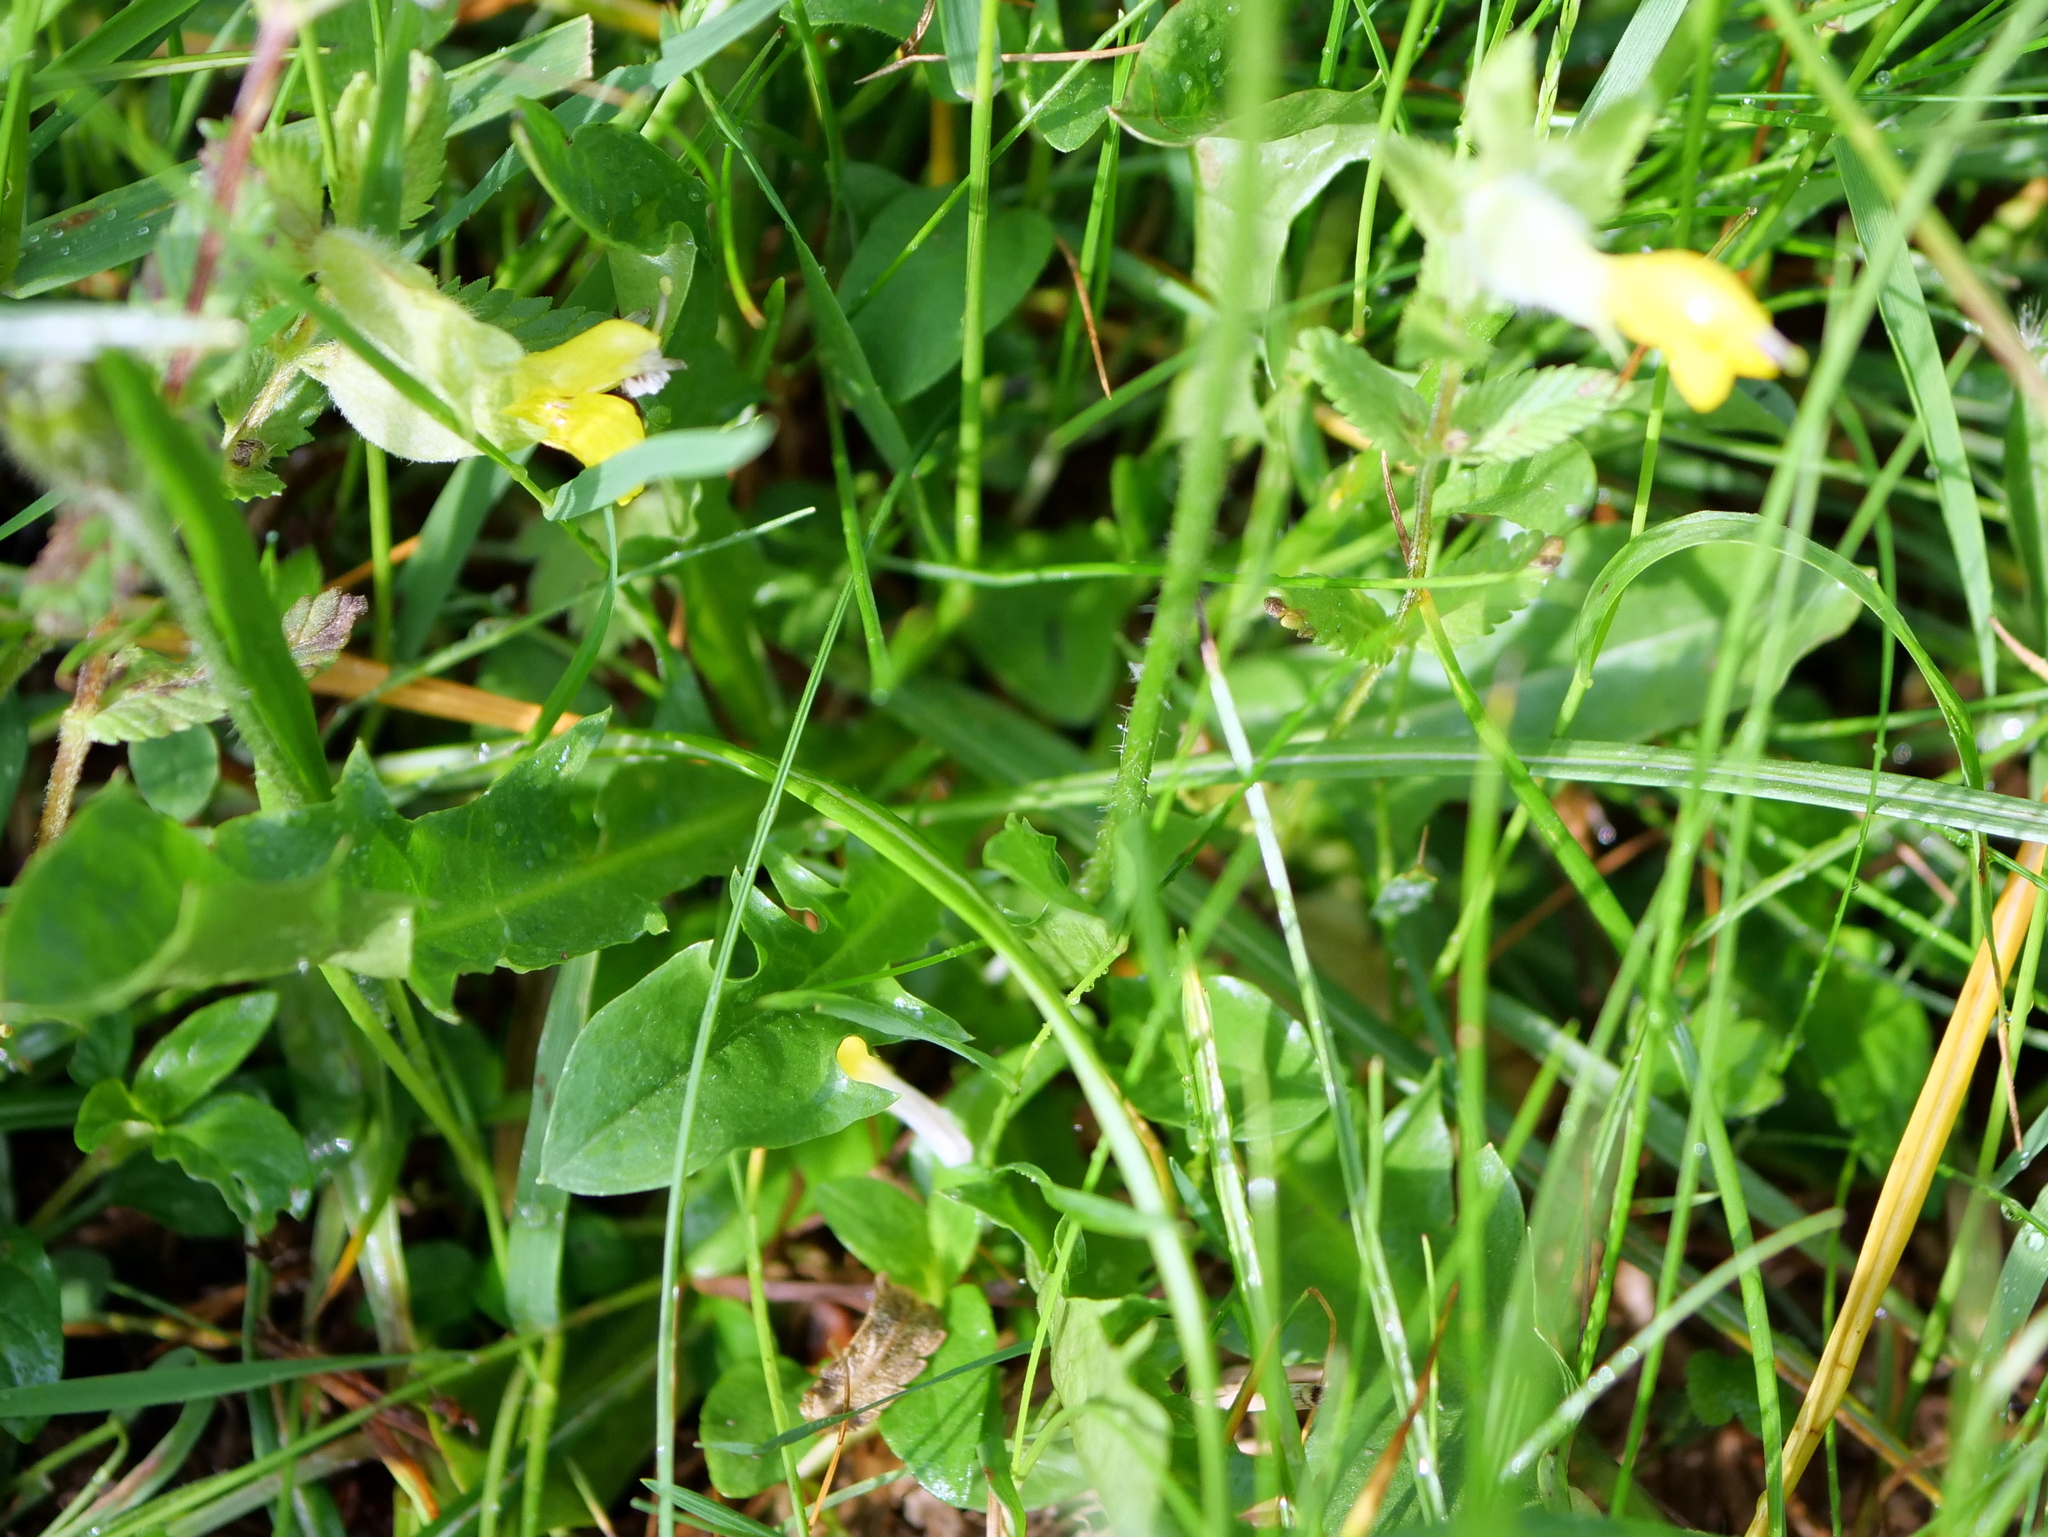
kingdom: Plantae
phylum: Tracheophyta
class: Magnoliopsida
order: Asterales
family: Asteraceae
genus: Crepis
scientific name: Crepis aurea
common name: Golden hawk's-beard
